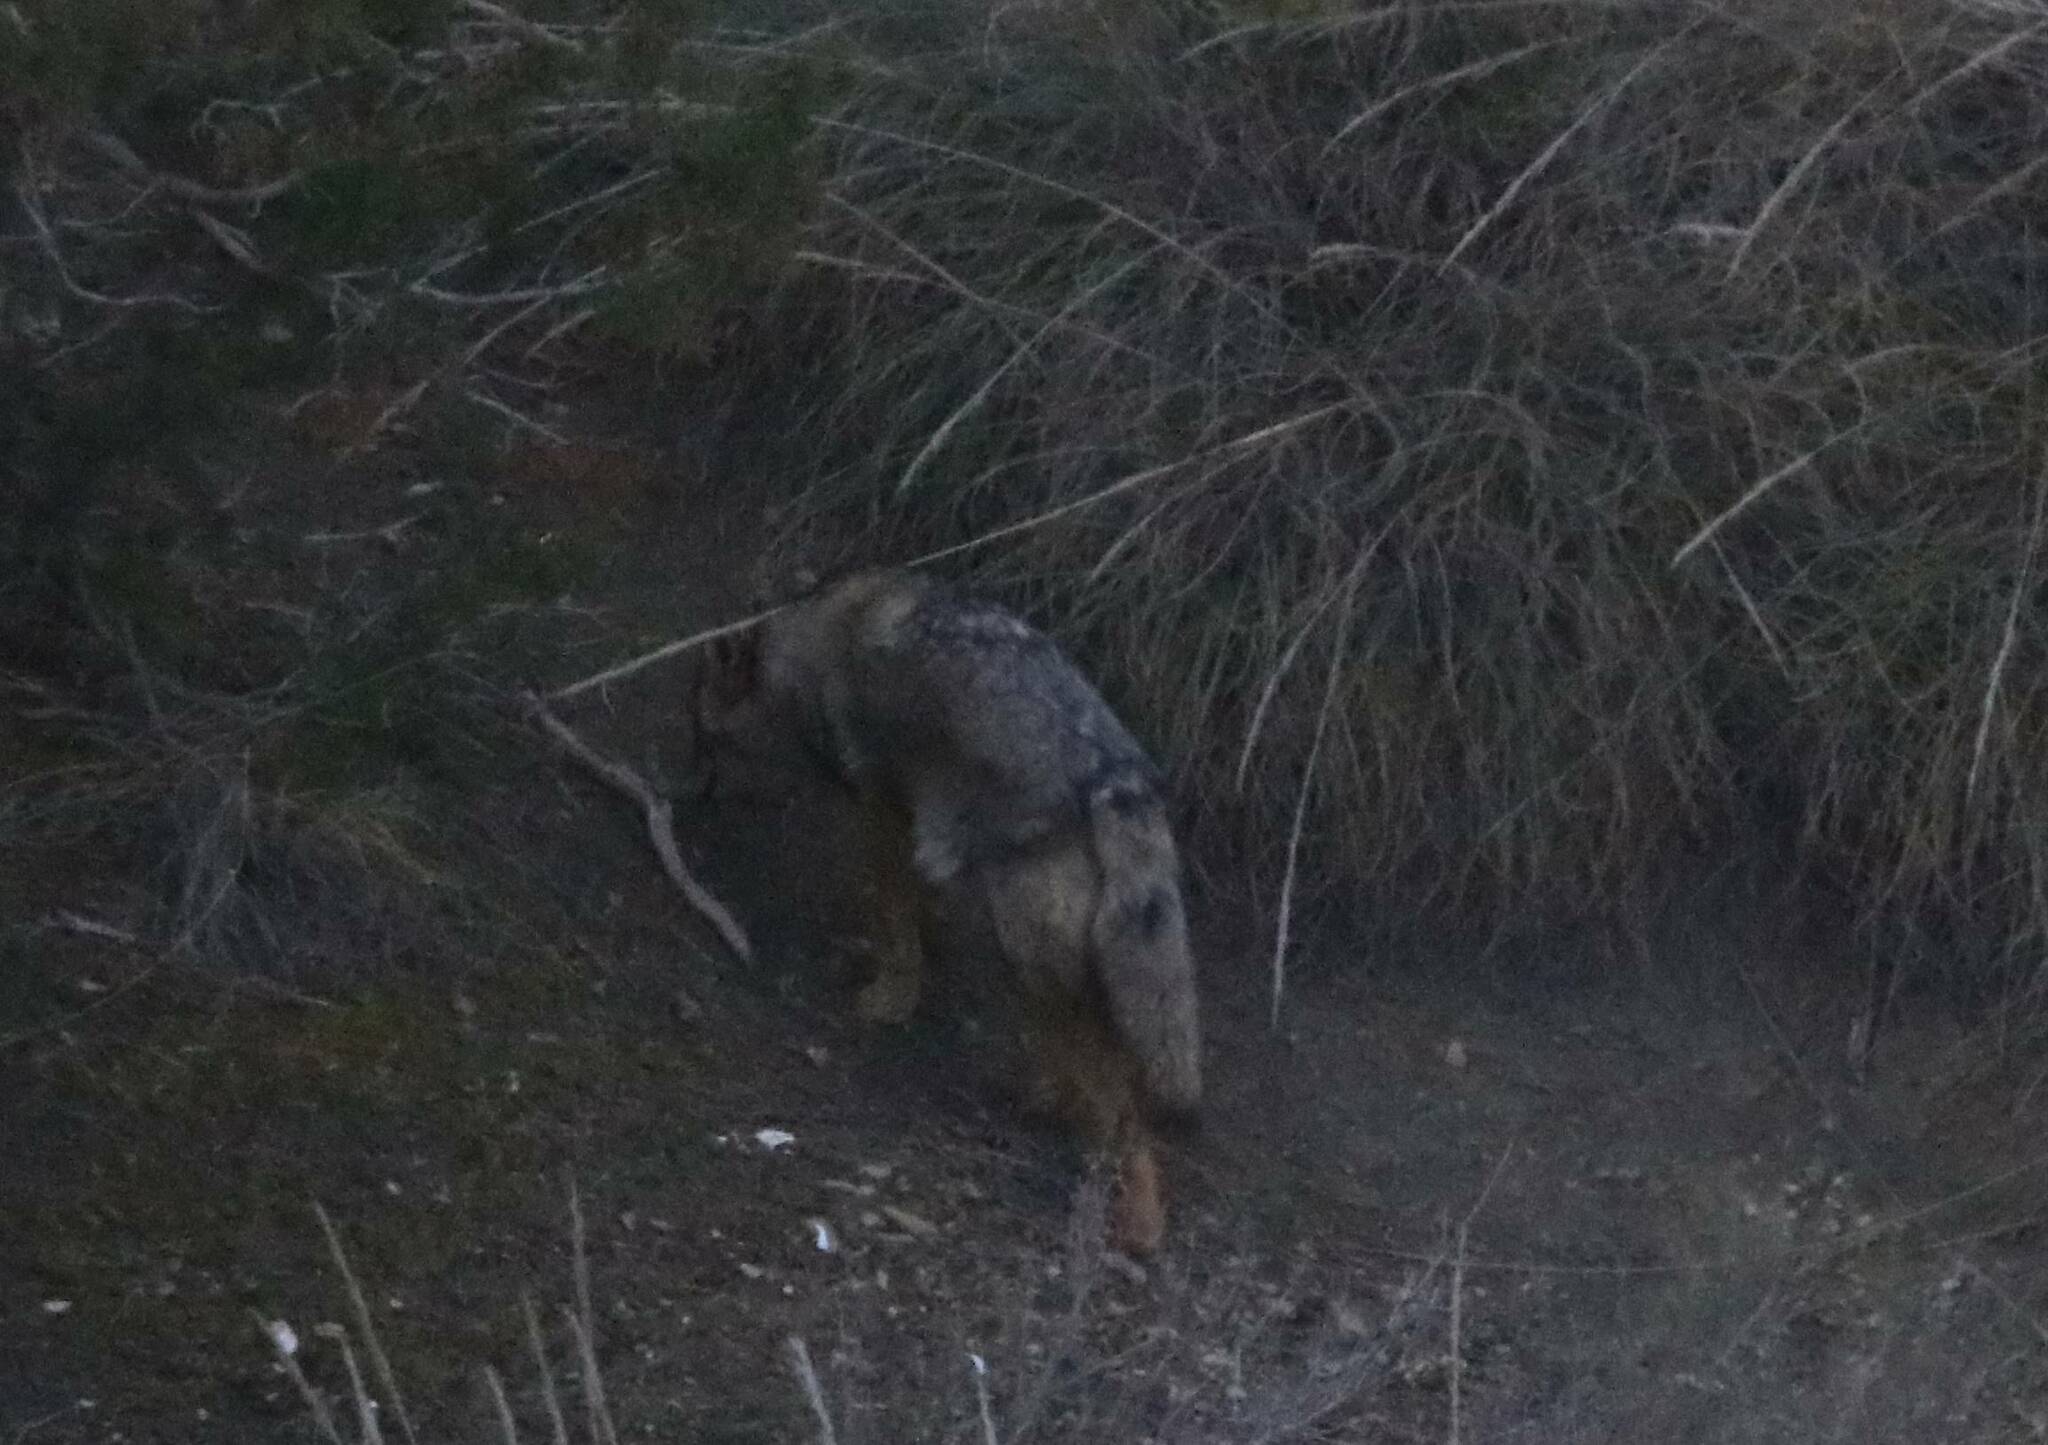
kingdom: Animalia
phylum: Chordata
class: Mammalia
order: Carnivora
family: Canidae
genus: Canis
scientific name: Canis lupaster
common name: African golden wolf
